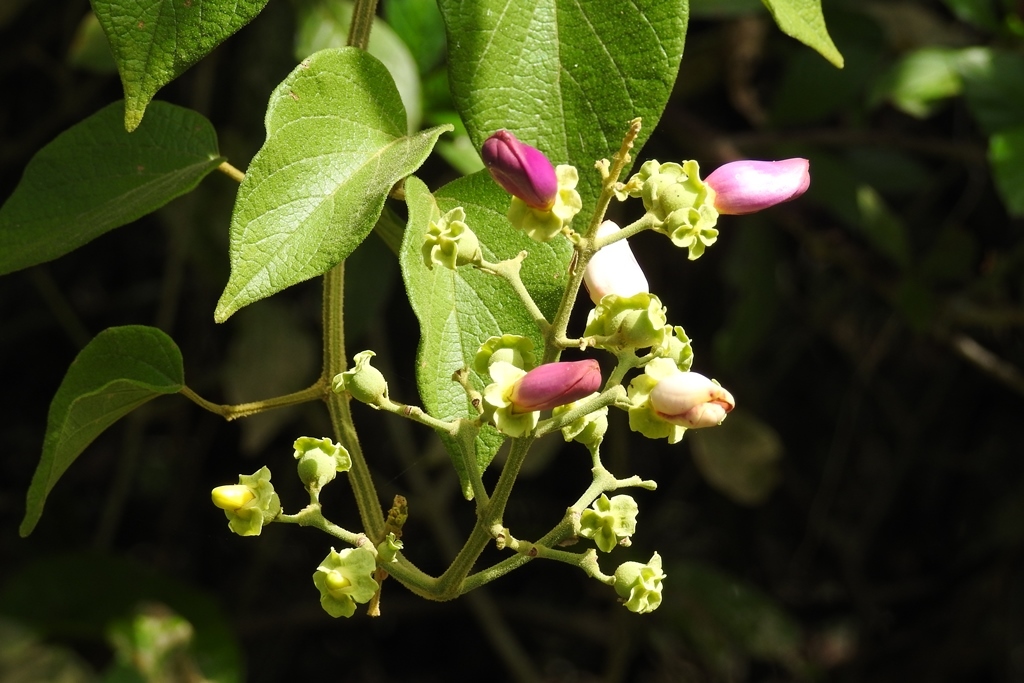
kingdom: Plantae
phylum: Tracheophyta
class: Magnoliopsida
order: Lamiales
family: Bignoniaceae
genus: Amphilophium
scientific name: Amphilophium paniculatum
